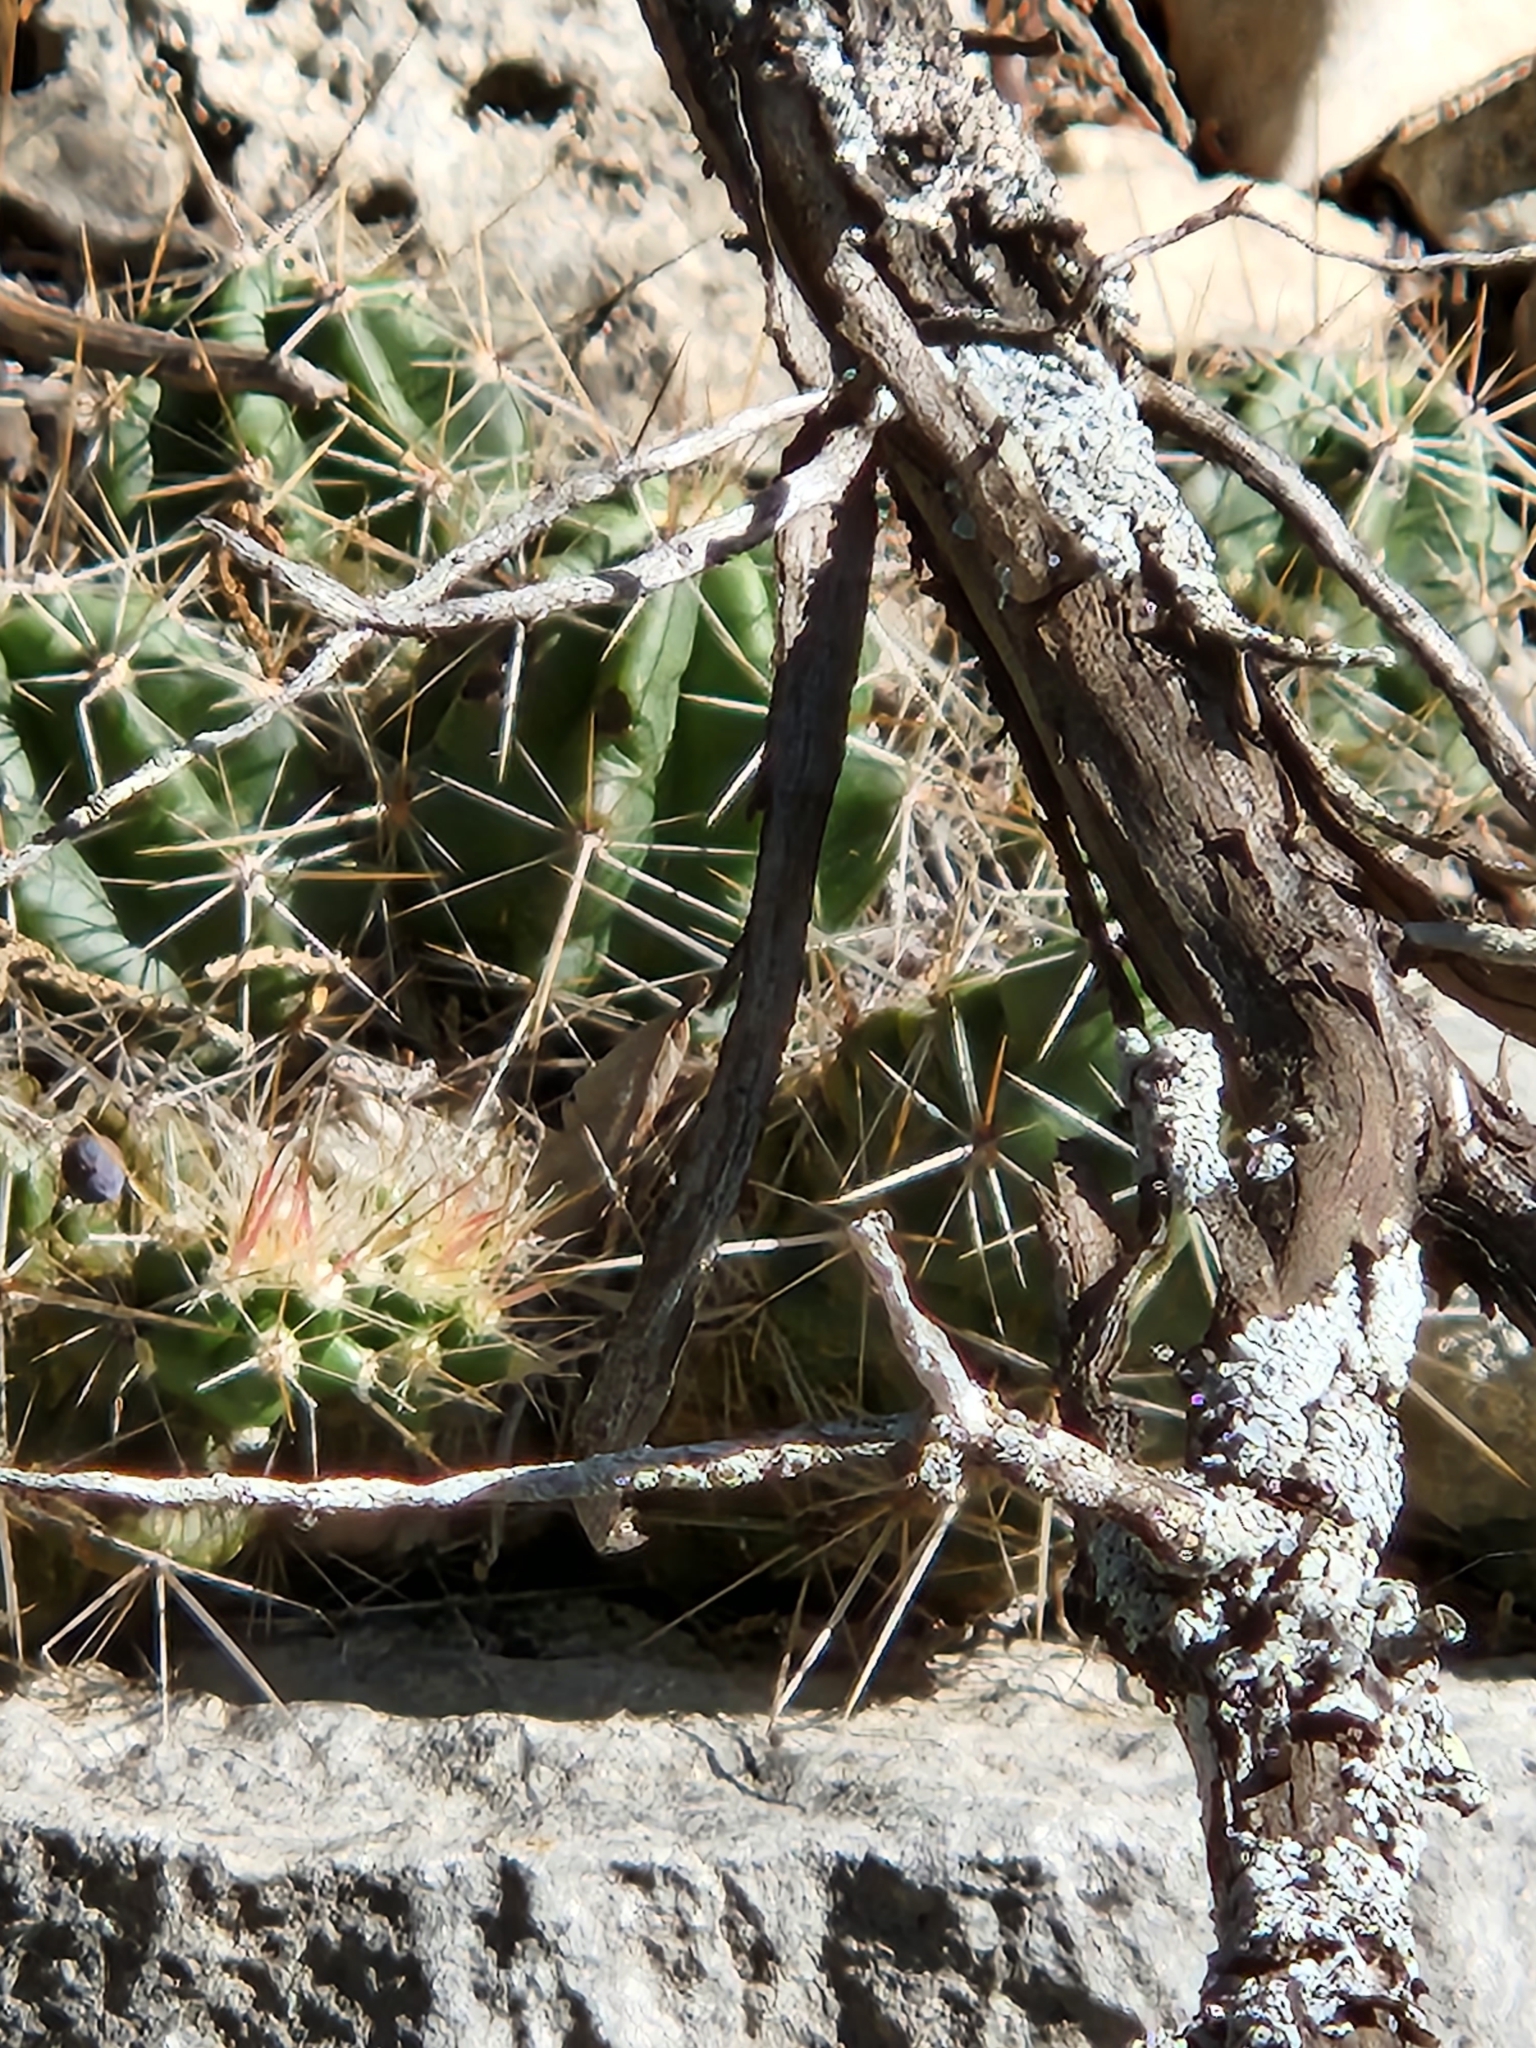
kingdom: Plantae
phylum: Tracheophyta
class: Magnoliopsida
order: Caryophyllales
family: Cactaceae
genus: Echinocereus
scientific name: Echinocereus enneacanthus
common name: Pitaya
